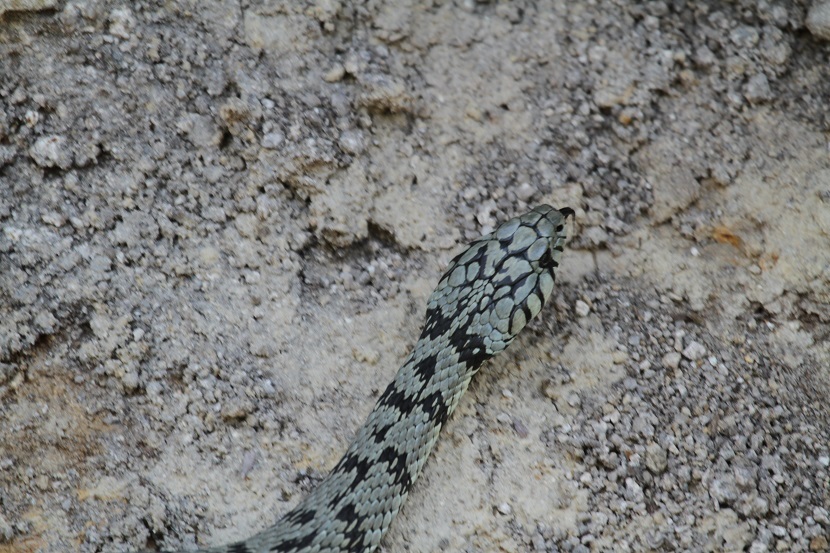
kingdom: Animalia
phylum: Chordata
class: Squamata
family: Colubridae
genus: Natrix
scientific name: Natrix helvetica
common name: Banded grass snake
